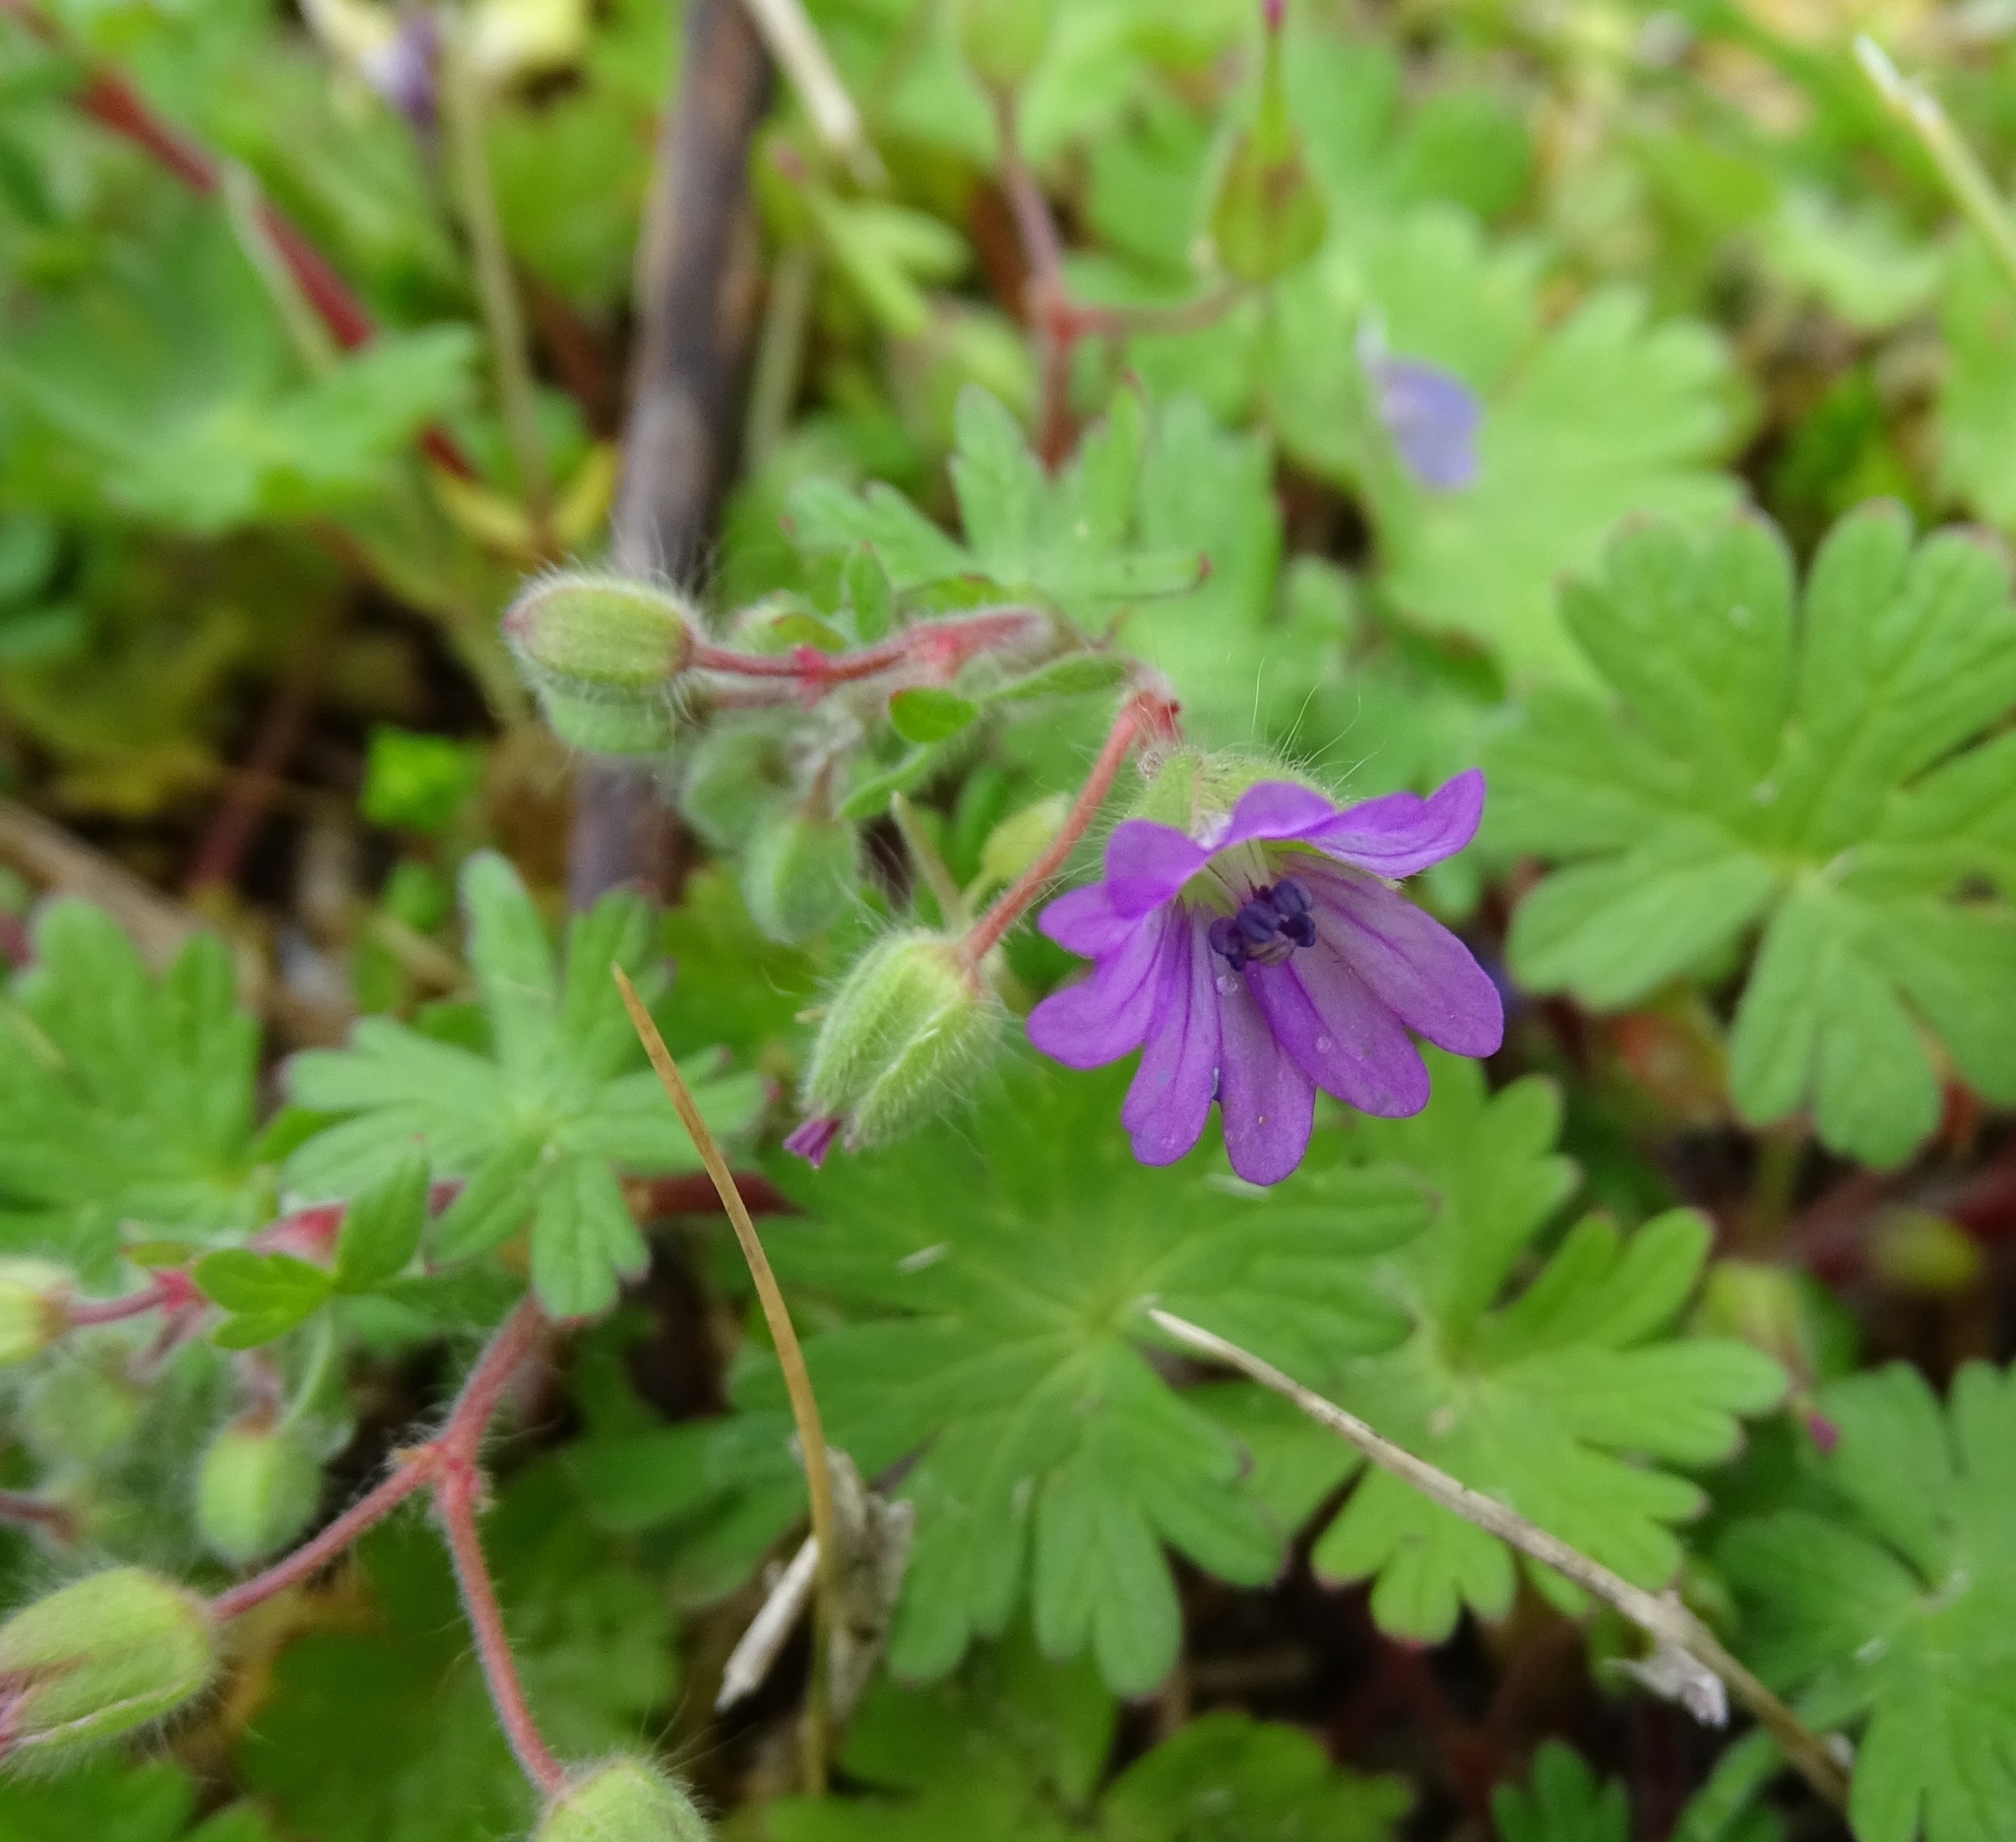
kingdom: Plantae
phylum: Tracheophyta
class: Magnoliopsida
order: Geraniales
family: Geraniaceae
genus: Geranium
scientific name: Geranium molle
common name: Dove's-foot crane's-bill
